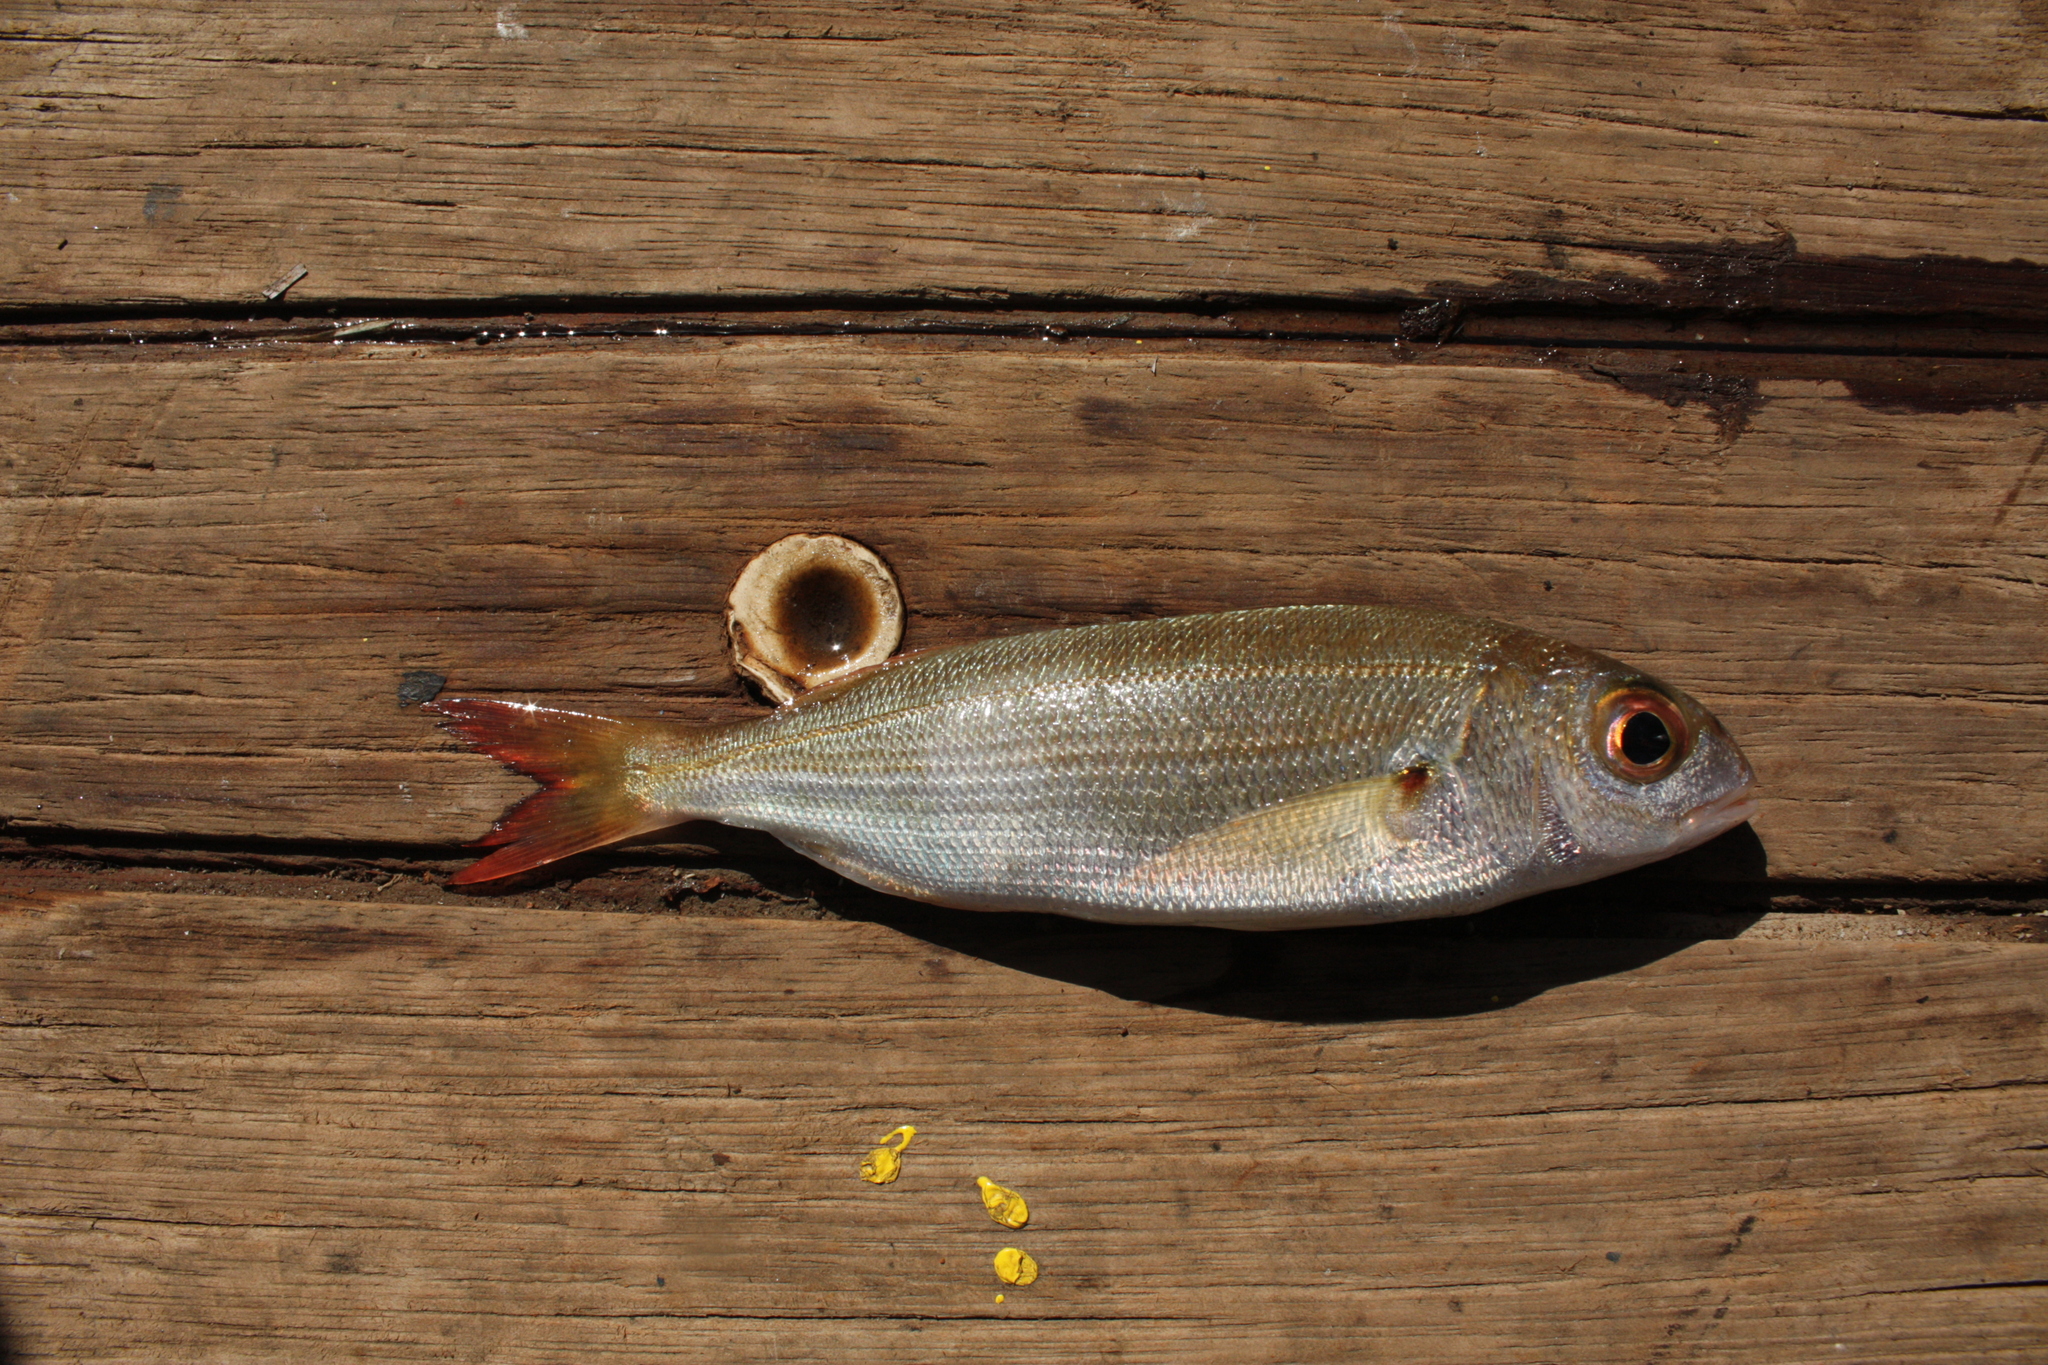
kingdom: Animalia
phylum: Chordata
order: Perciformes
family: Sparidae
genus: Pagellus
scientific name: Pagellus acarne
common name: Axillary sea-bream
